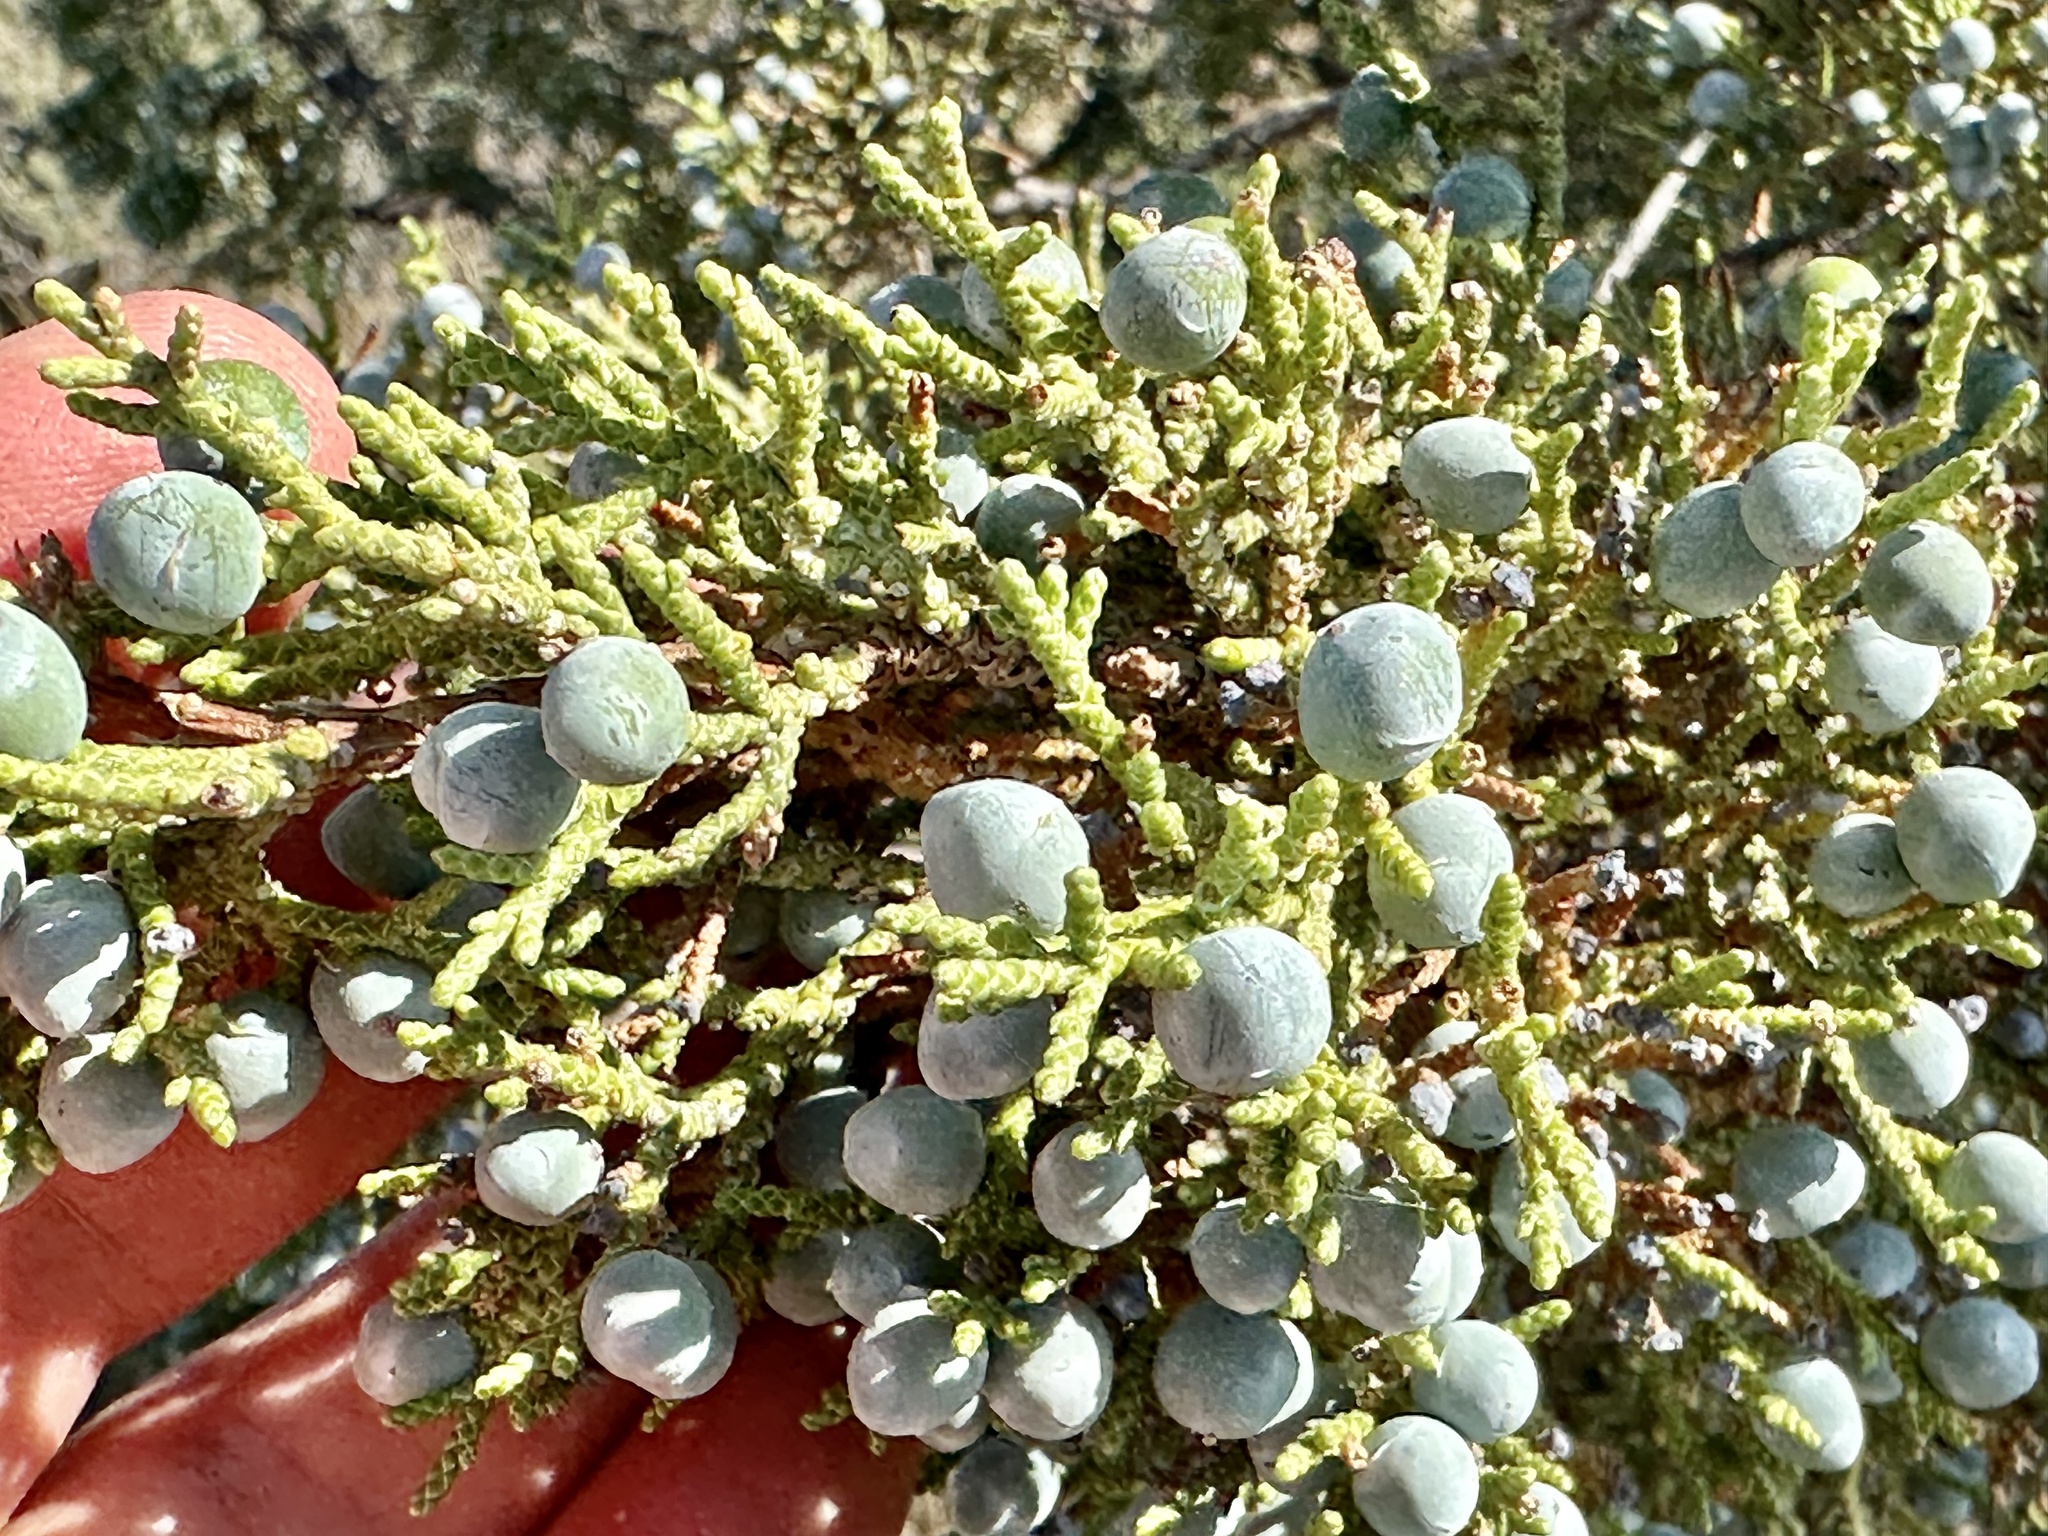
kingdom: Plantae
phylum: Tracheophyta
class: Pinopsida
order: Pinales
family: Cupressaceae
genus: Juniperus
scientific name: Juniperus occidentalis
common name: Western juniper
